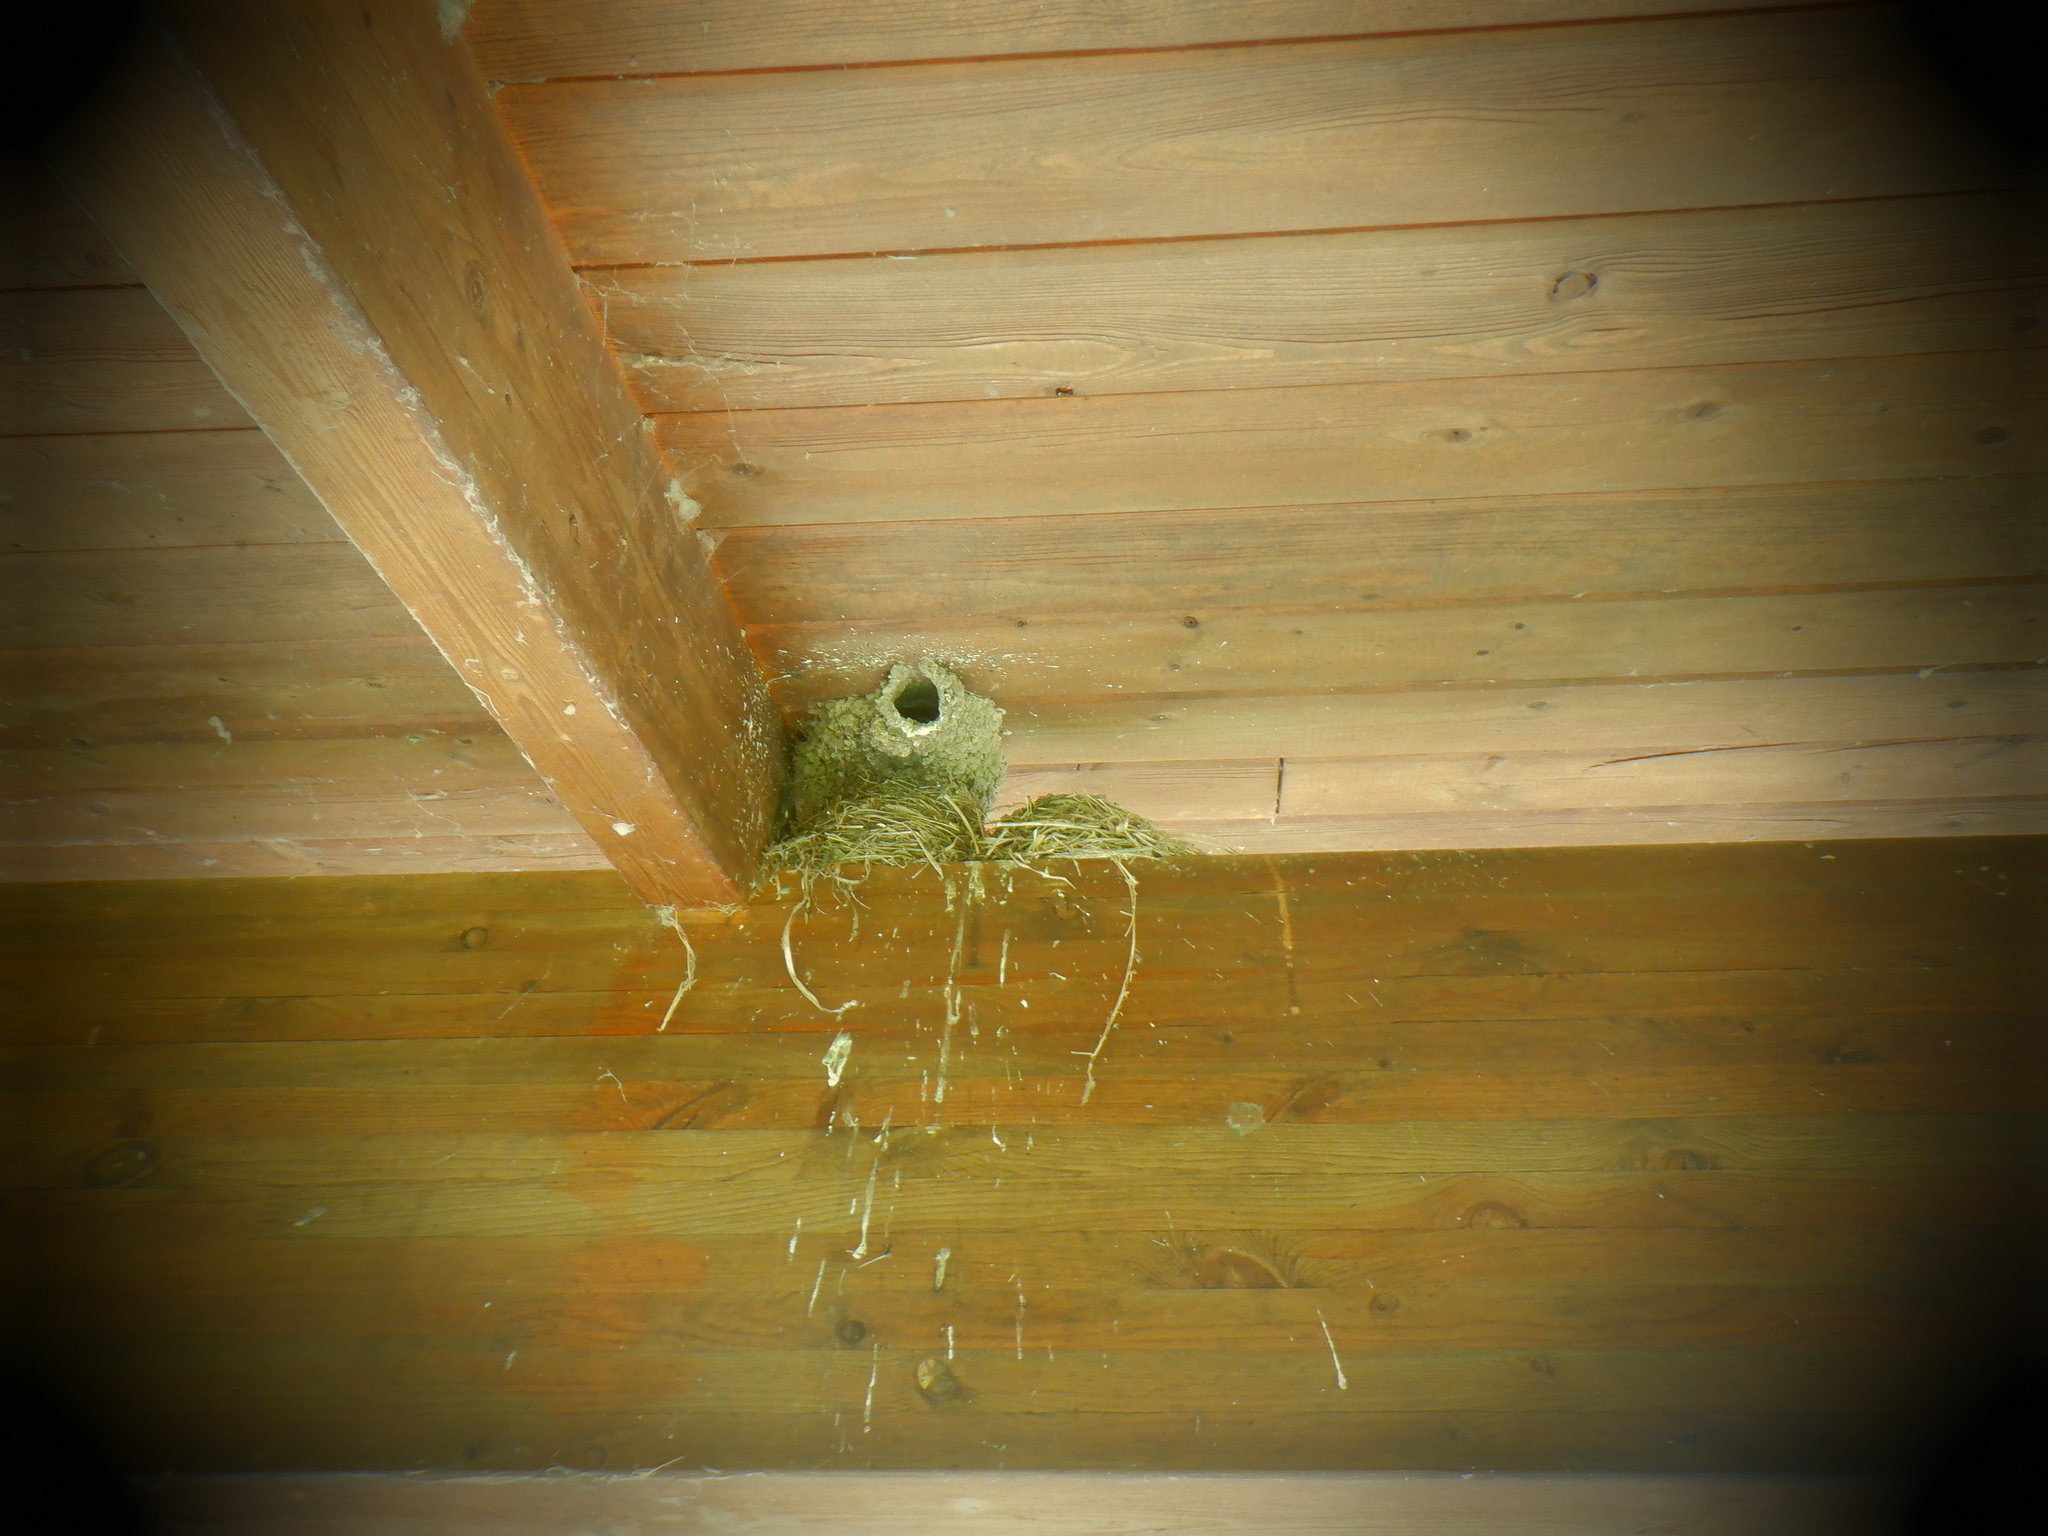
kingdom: Animalia
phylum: Chordata
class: Aves
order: Passeriformes
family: Hirundinidae
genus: Petrochelidon
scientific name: Petrochelidon pyrrhonota
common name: American cliff swallow
